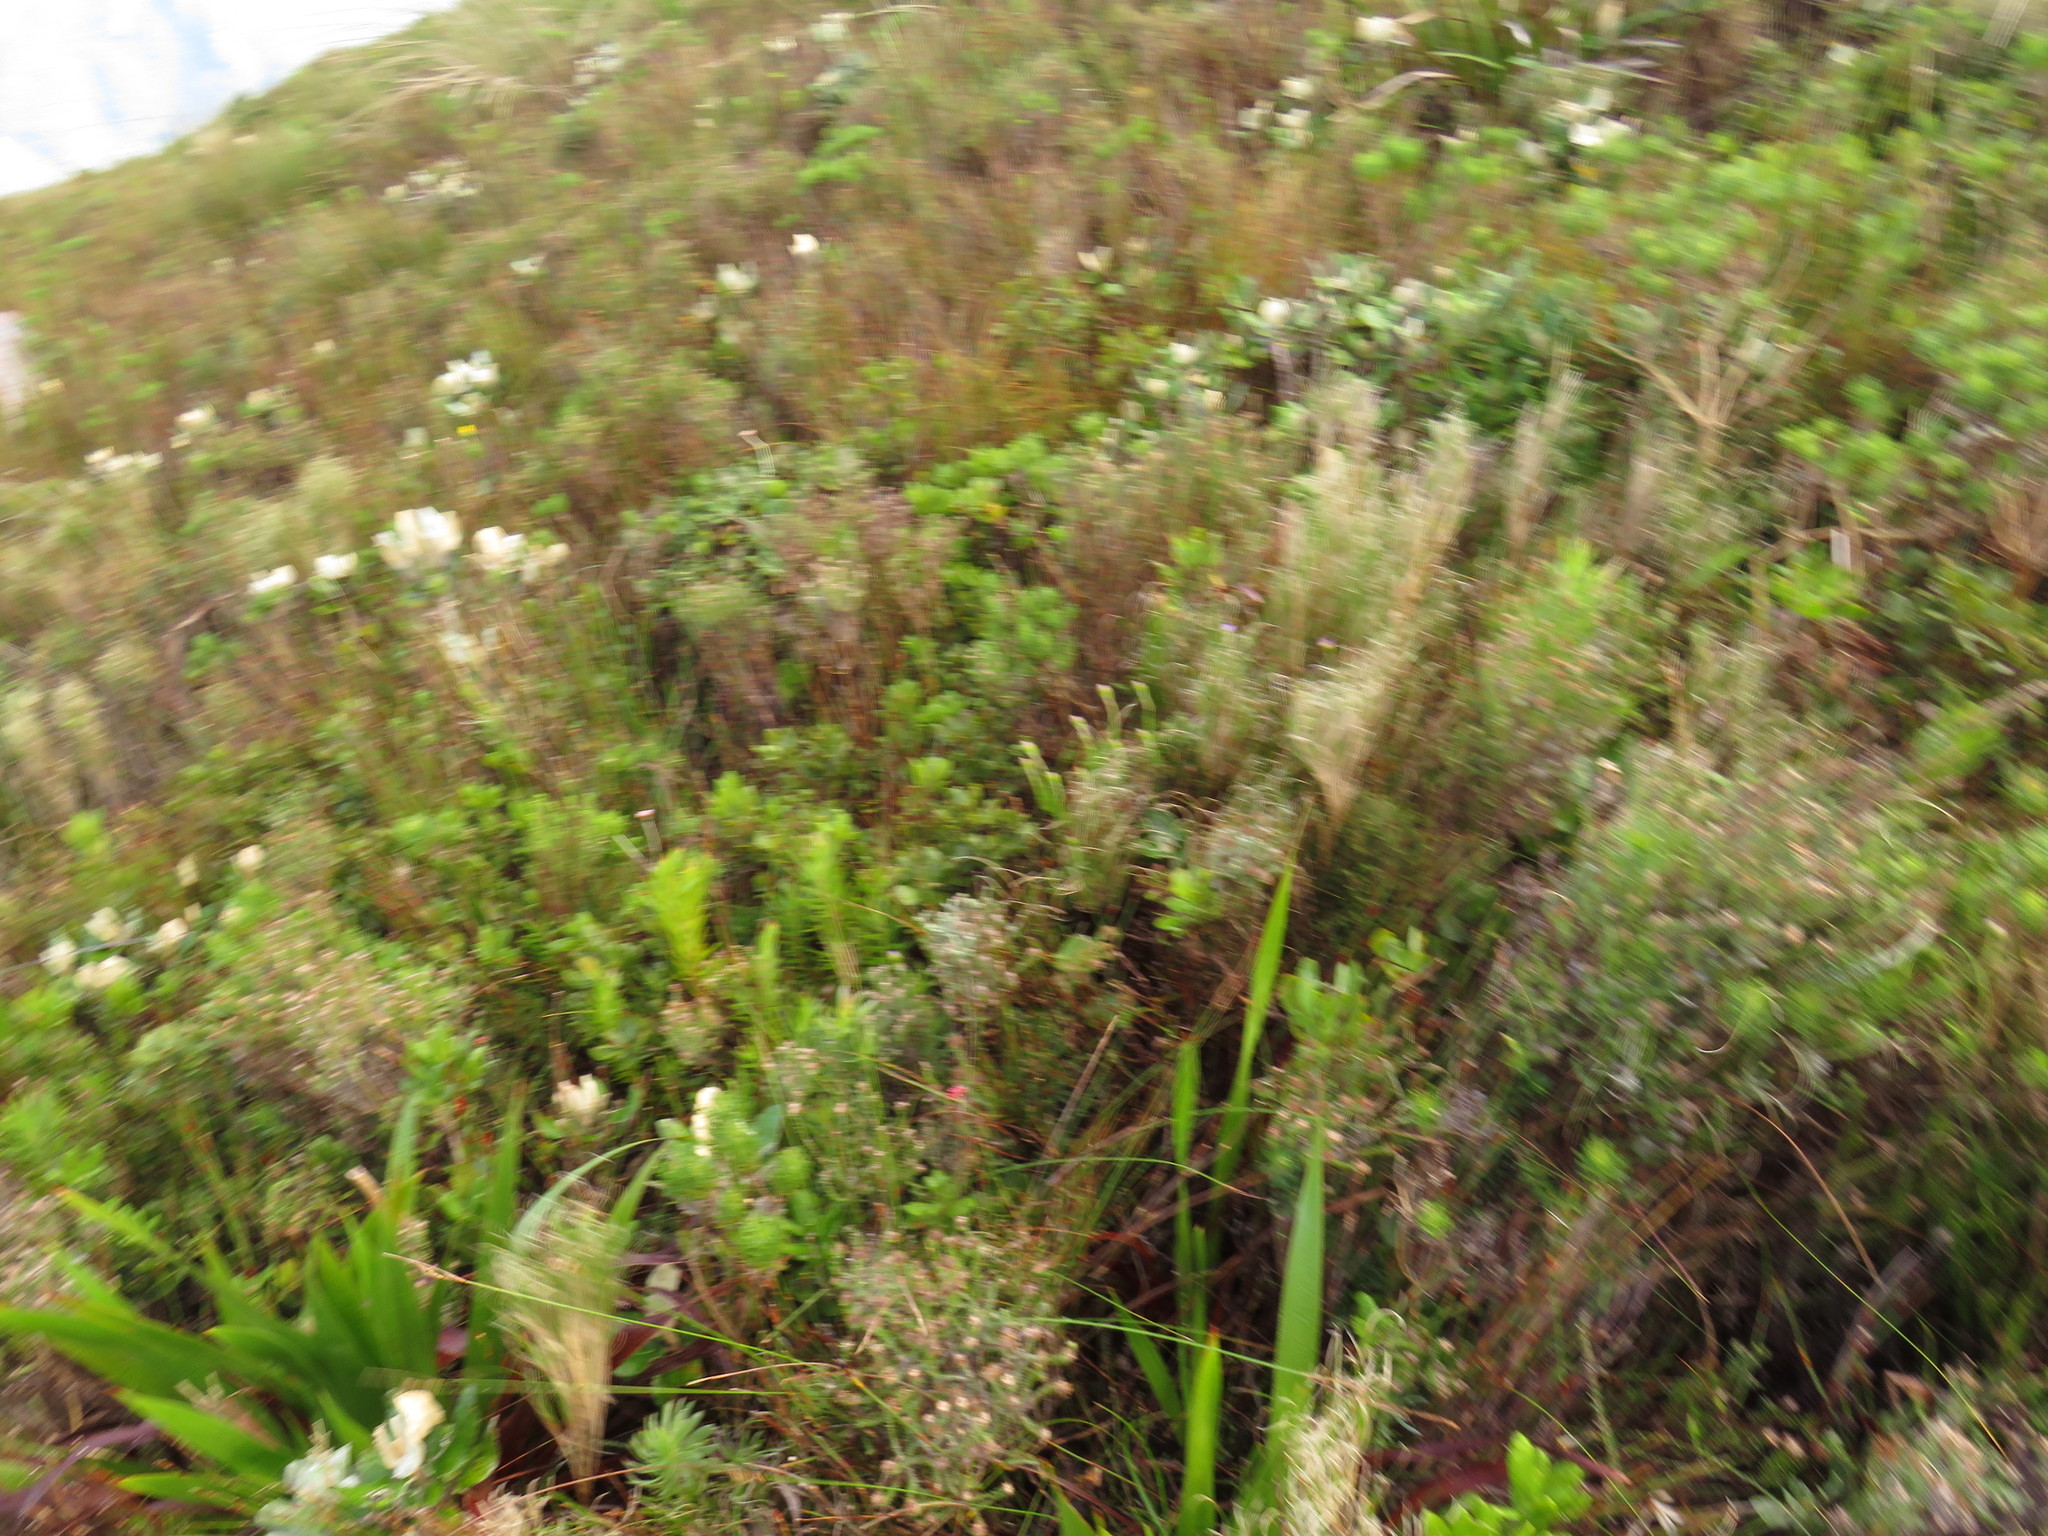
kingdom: Plantae
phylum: Tracheophyta
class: Magnoliopsida
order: Fagales
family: Myricaceae
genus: Morella
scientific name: Morella kraussiana
